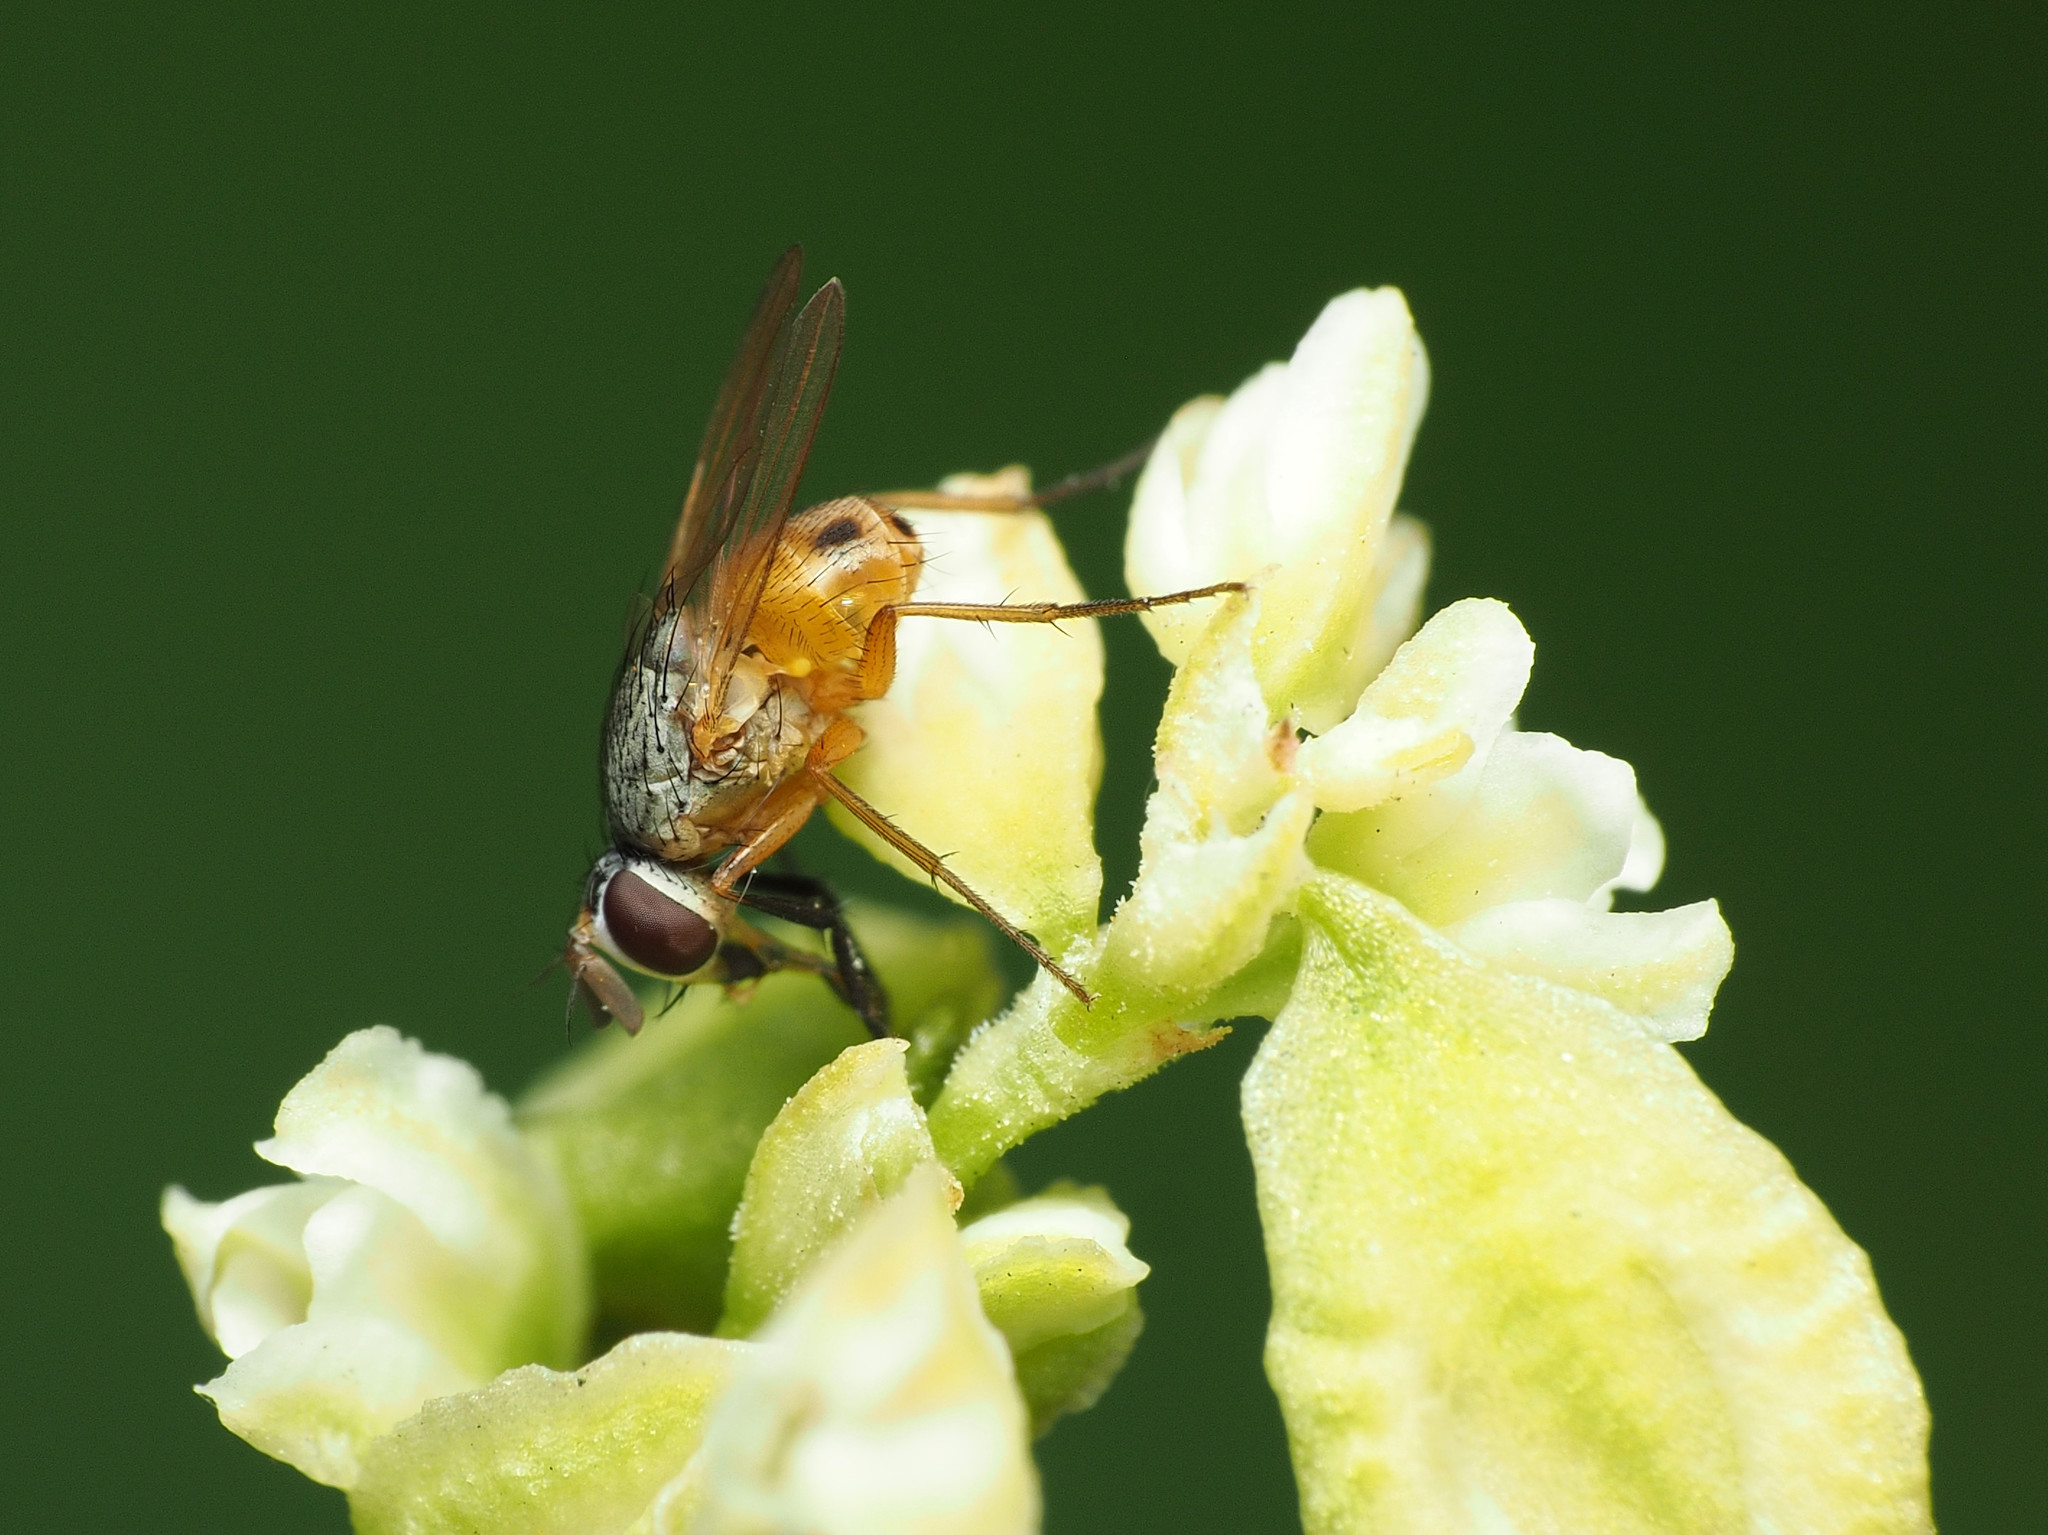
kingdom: Animalia
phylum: Arthropoda
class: Insecta
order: Diptera
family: Muscidae
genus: Atherigona
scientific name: Atherigona reversura
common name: Bermudagrass stem maggot
